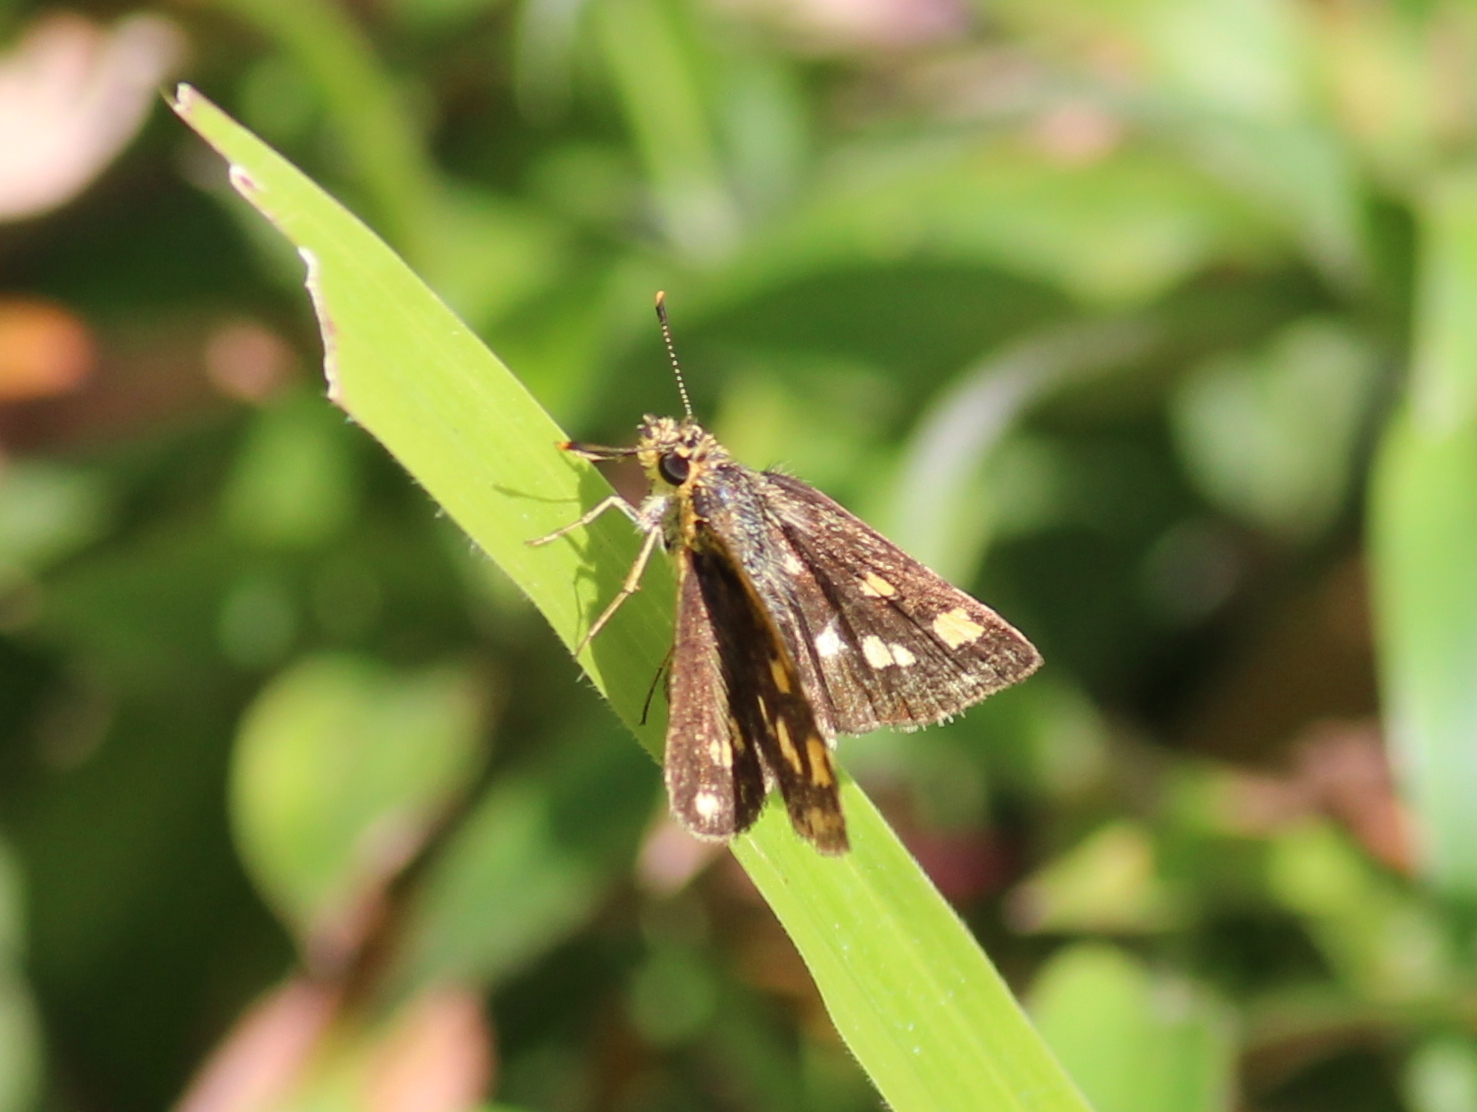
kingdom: Animalia
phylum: Arthropoda
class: Insecta
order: Lepidoptera
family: Hesperiidae
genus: Ampittia
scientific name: Ampittia dioscorides
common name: Common bush hopper
